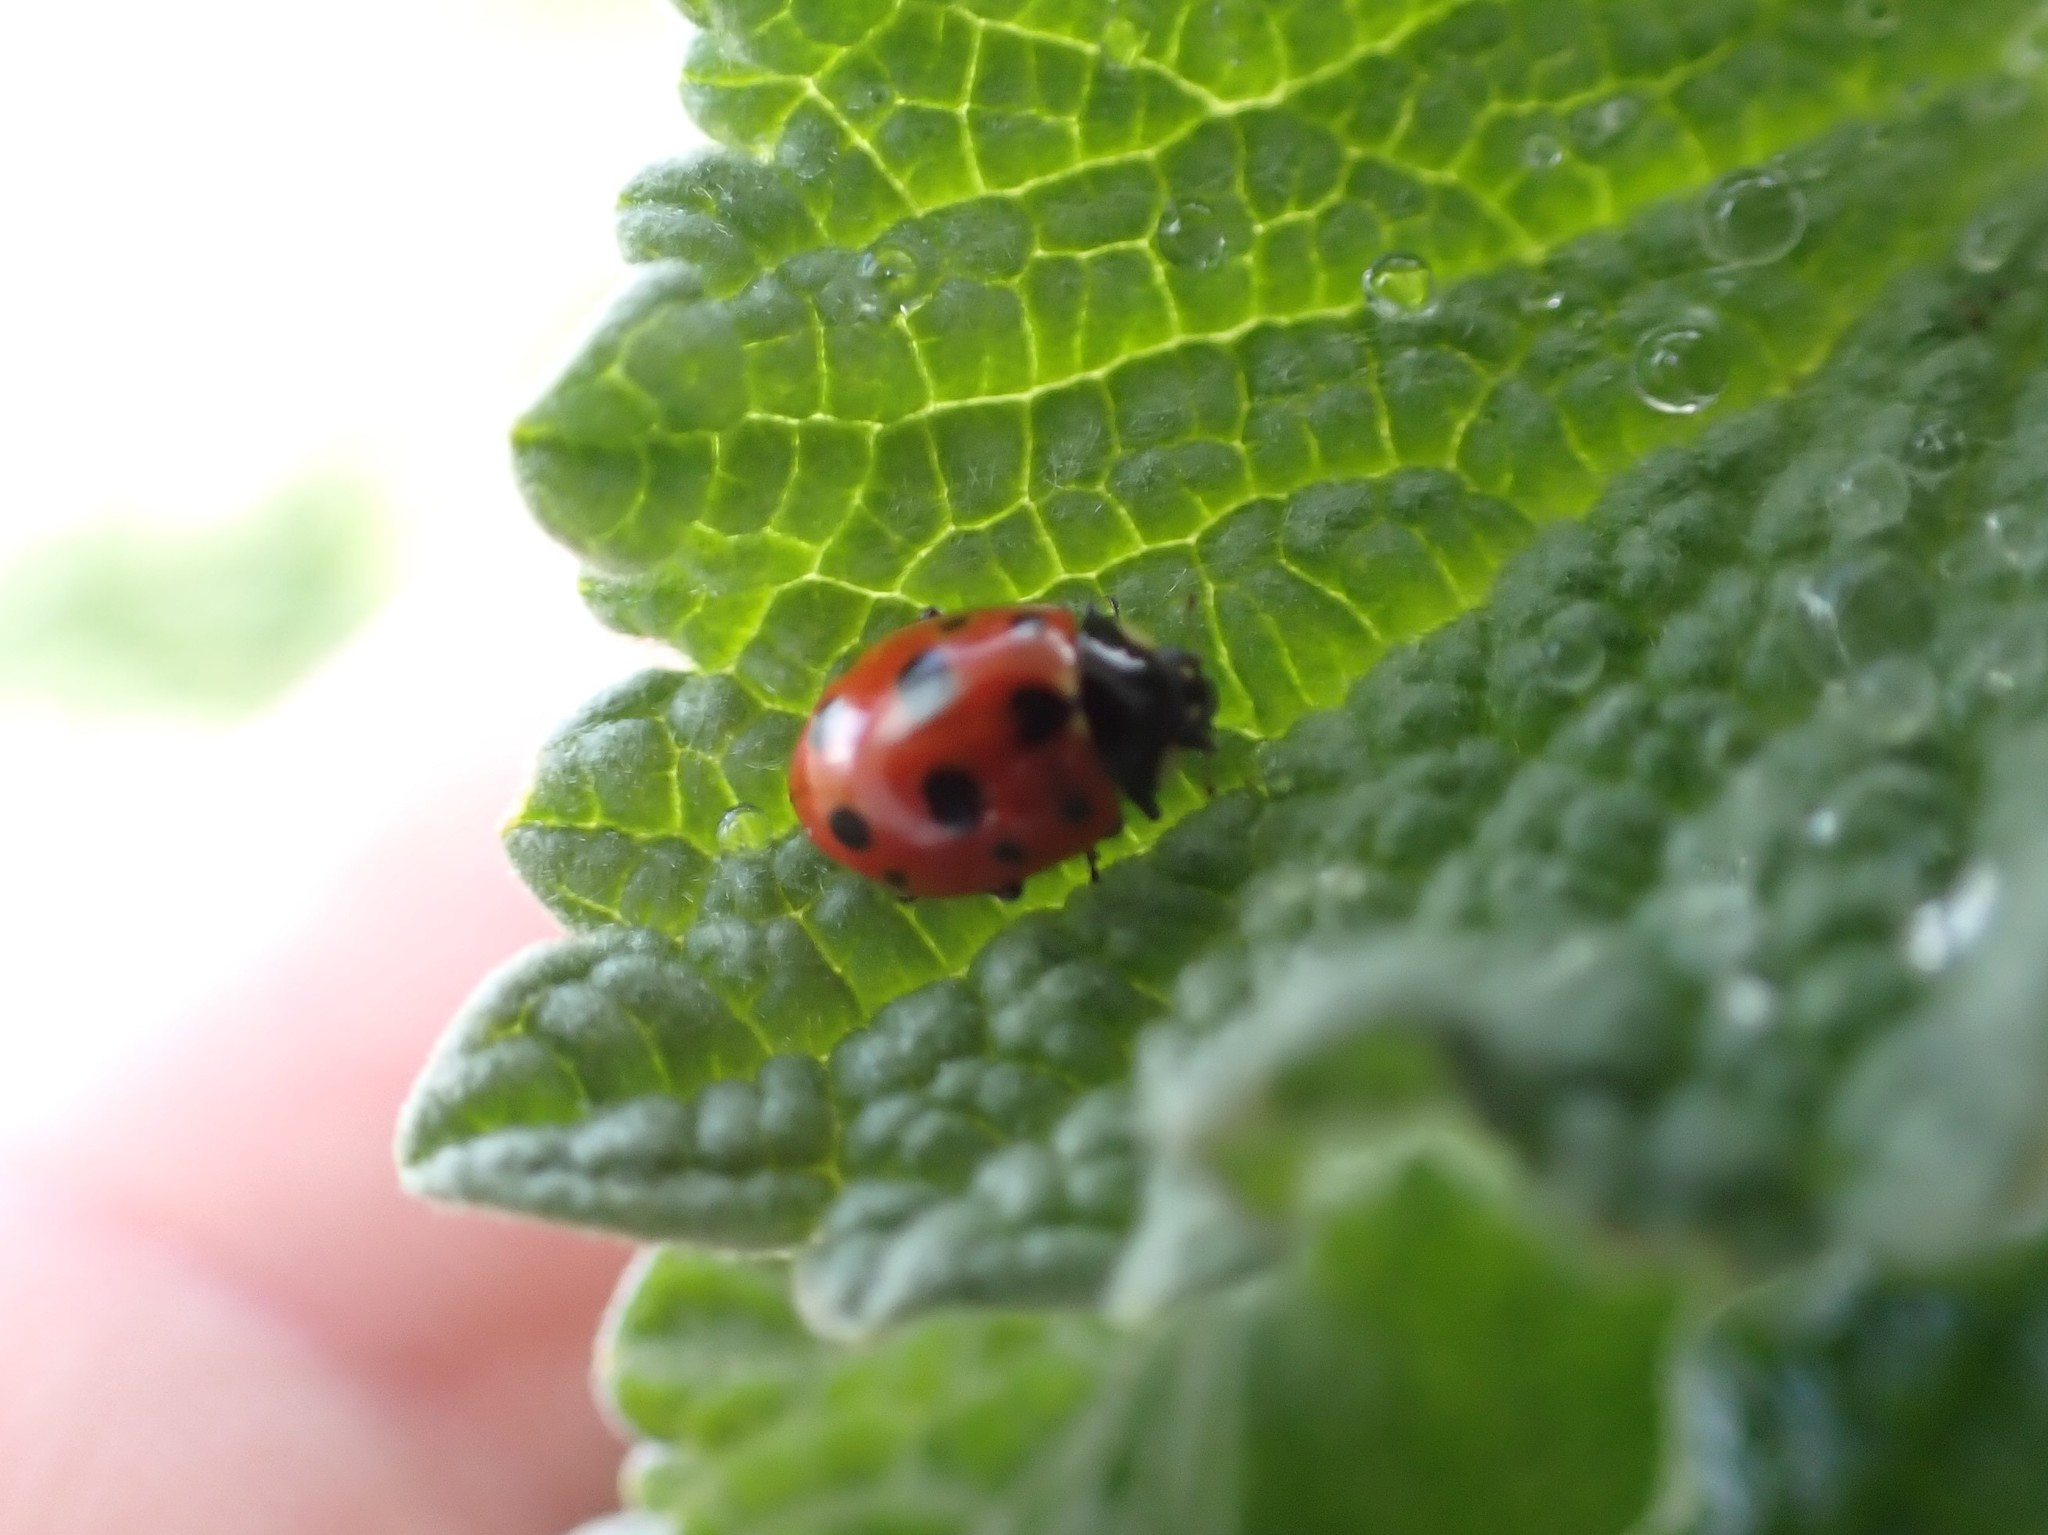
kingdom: Animalia
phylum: Arthropoda
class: Insecta
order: Coleoptera
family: Coccinellidae
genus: Coccinella
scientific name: Coccinella undecimpunctata
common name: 11-spot ladybird
